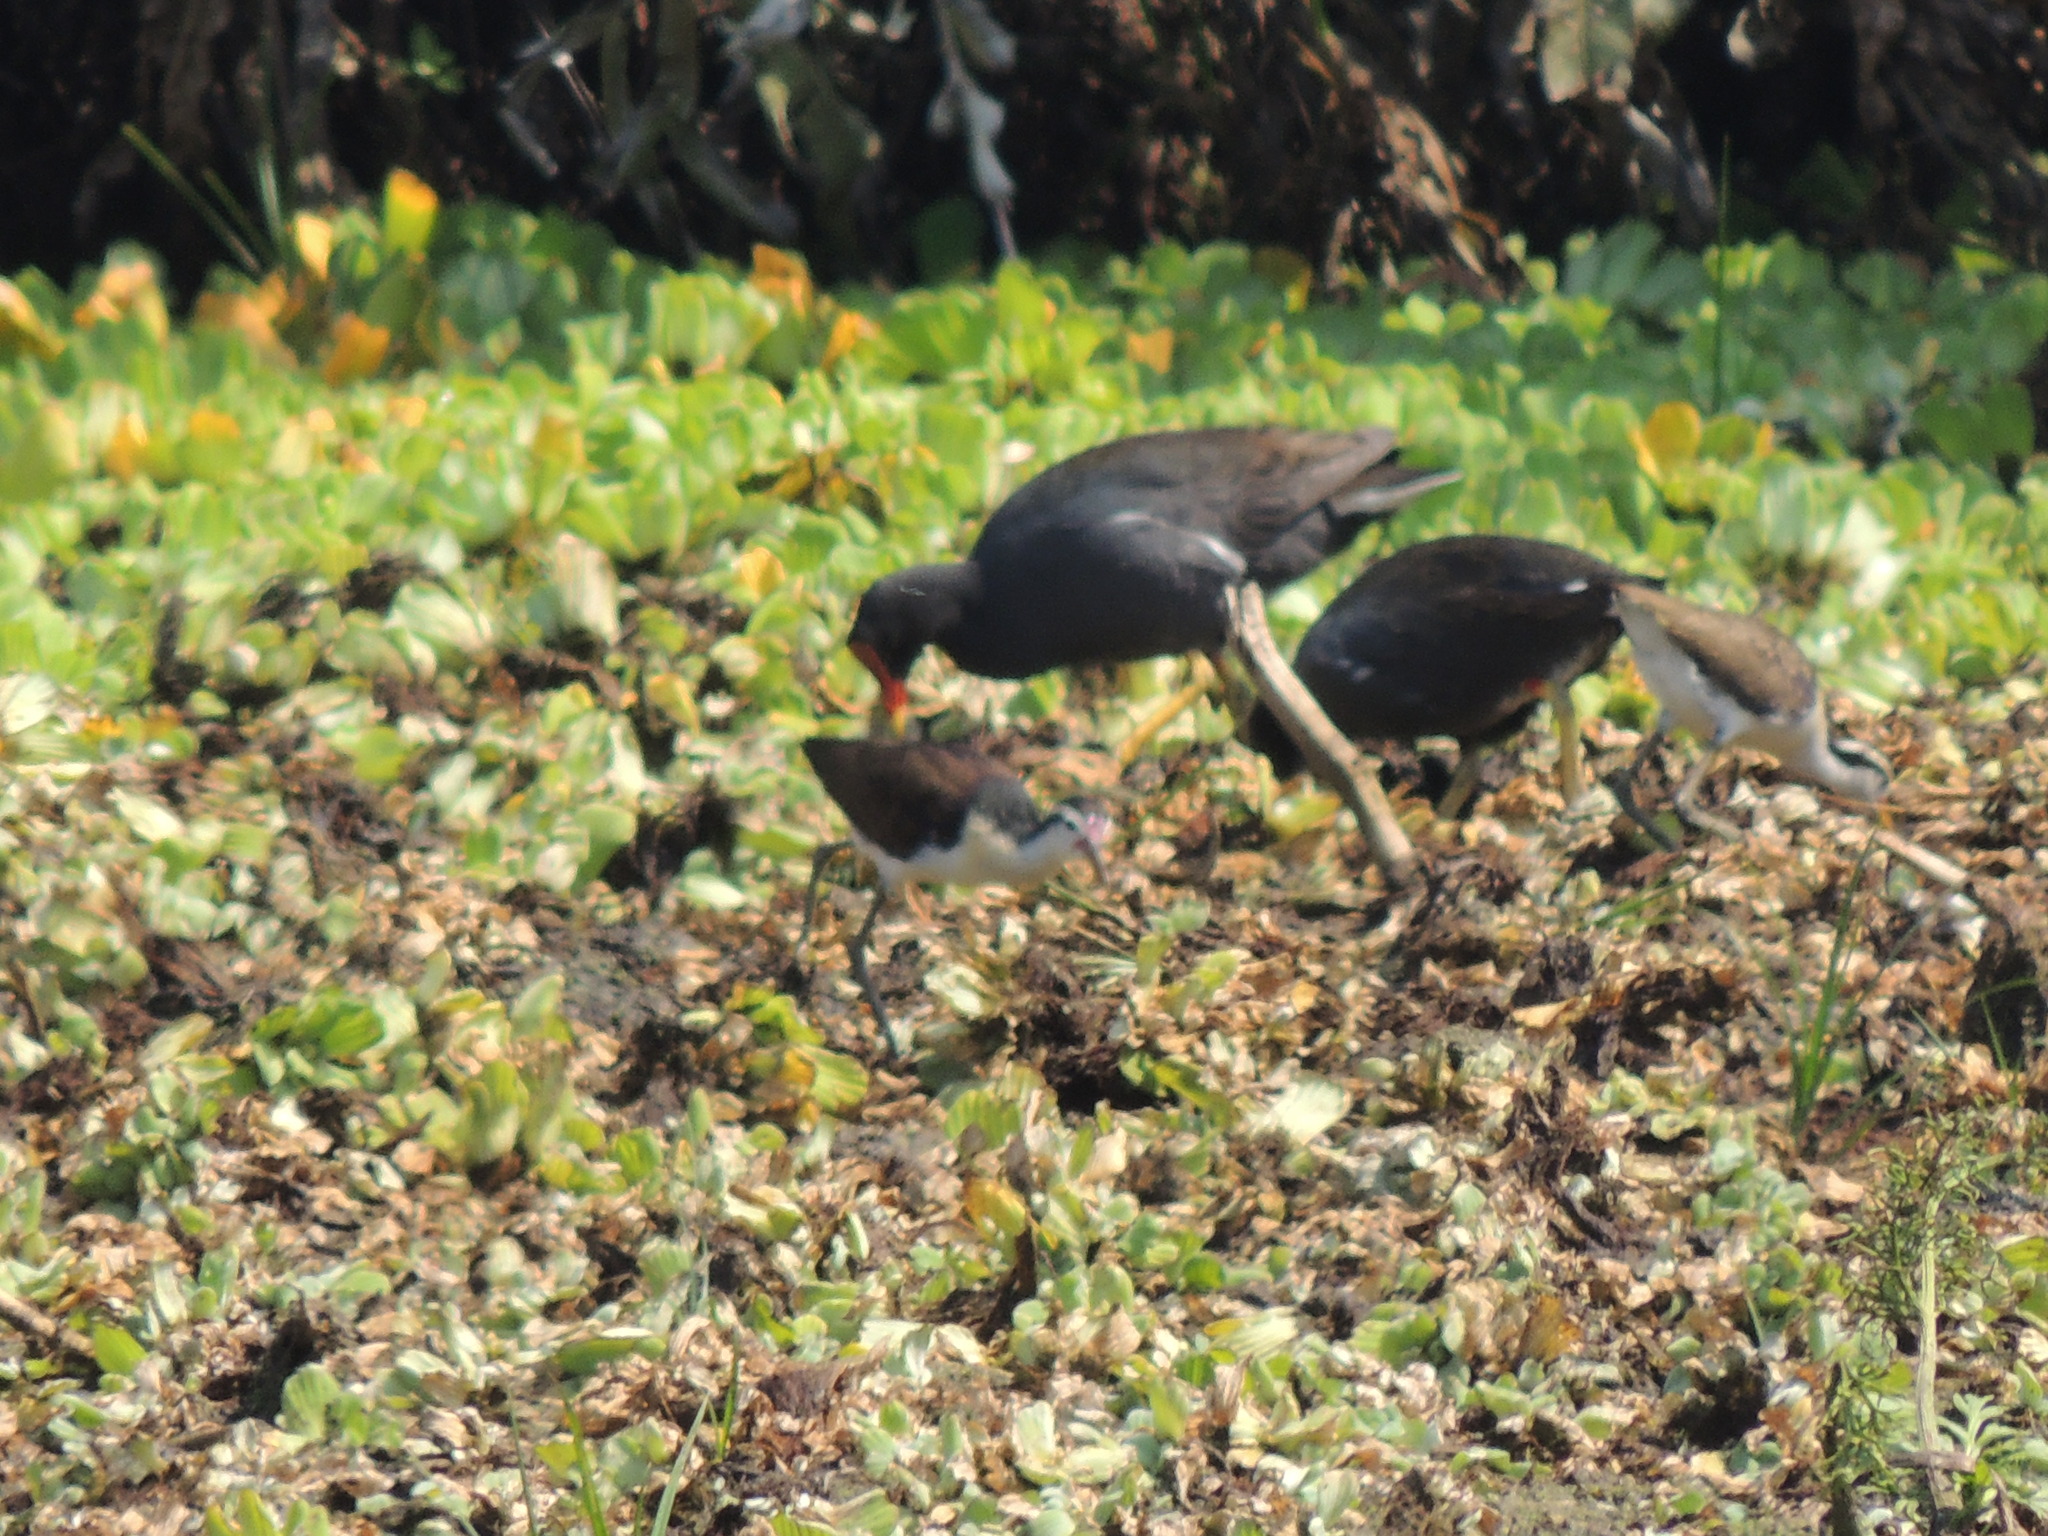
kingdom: Animalia
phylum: Chordata
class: Aves
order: Gruiformes
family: Rallidae
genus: Gallinula
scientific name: Gallinula chloropus
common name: Common moorhen
